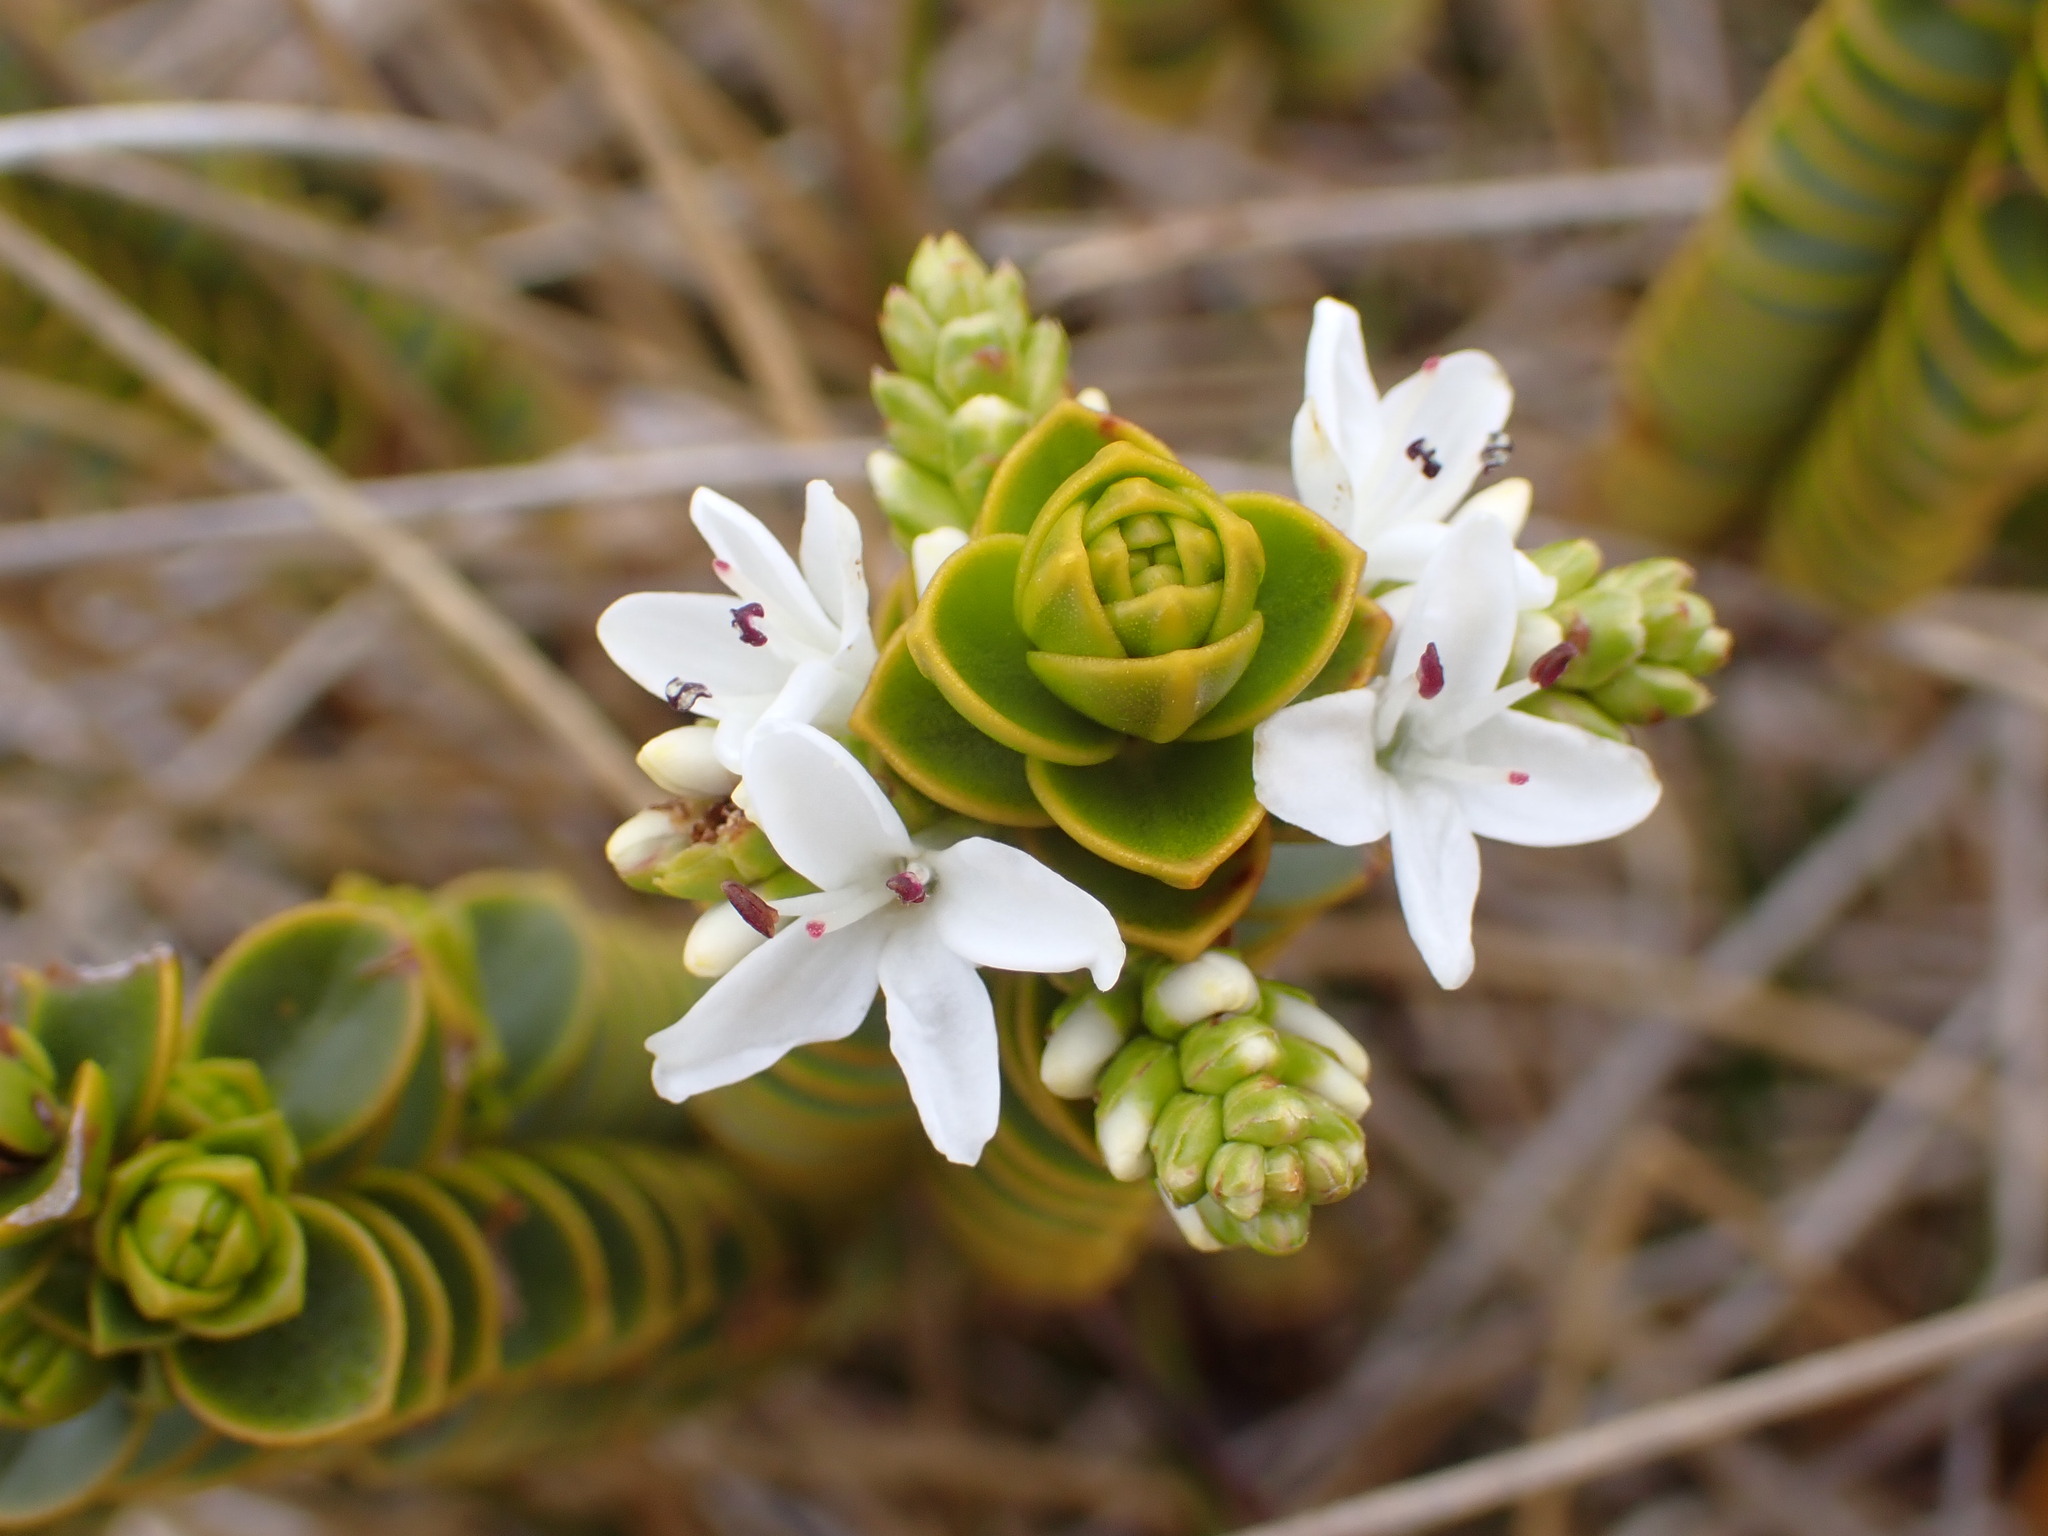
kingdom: Plantae
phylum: Tracheophyta
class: Magnoliopsida
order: Lamiales
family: Plantaginaceae
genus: Veronica
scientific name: Veronica pauciramosa
